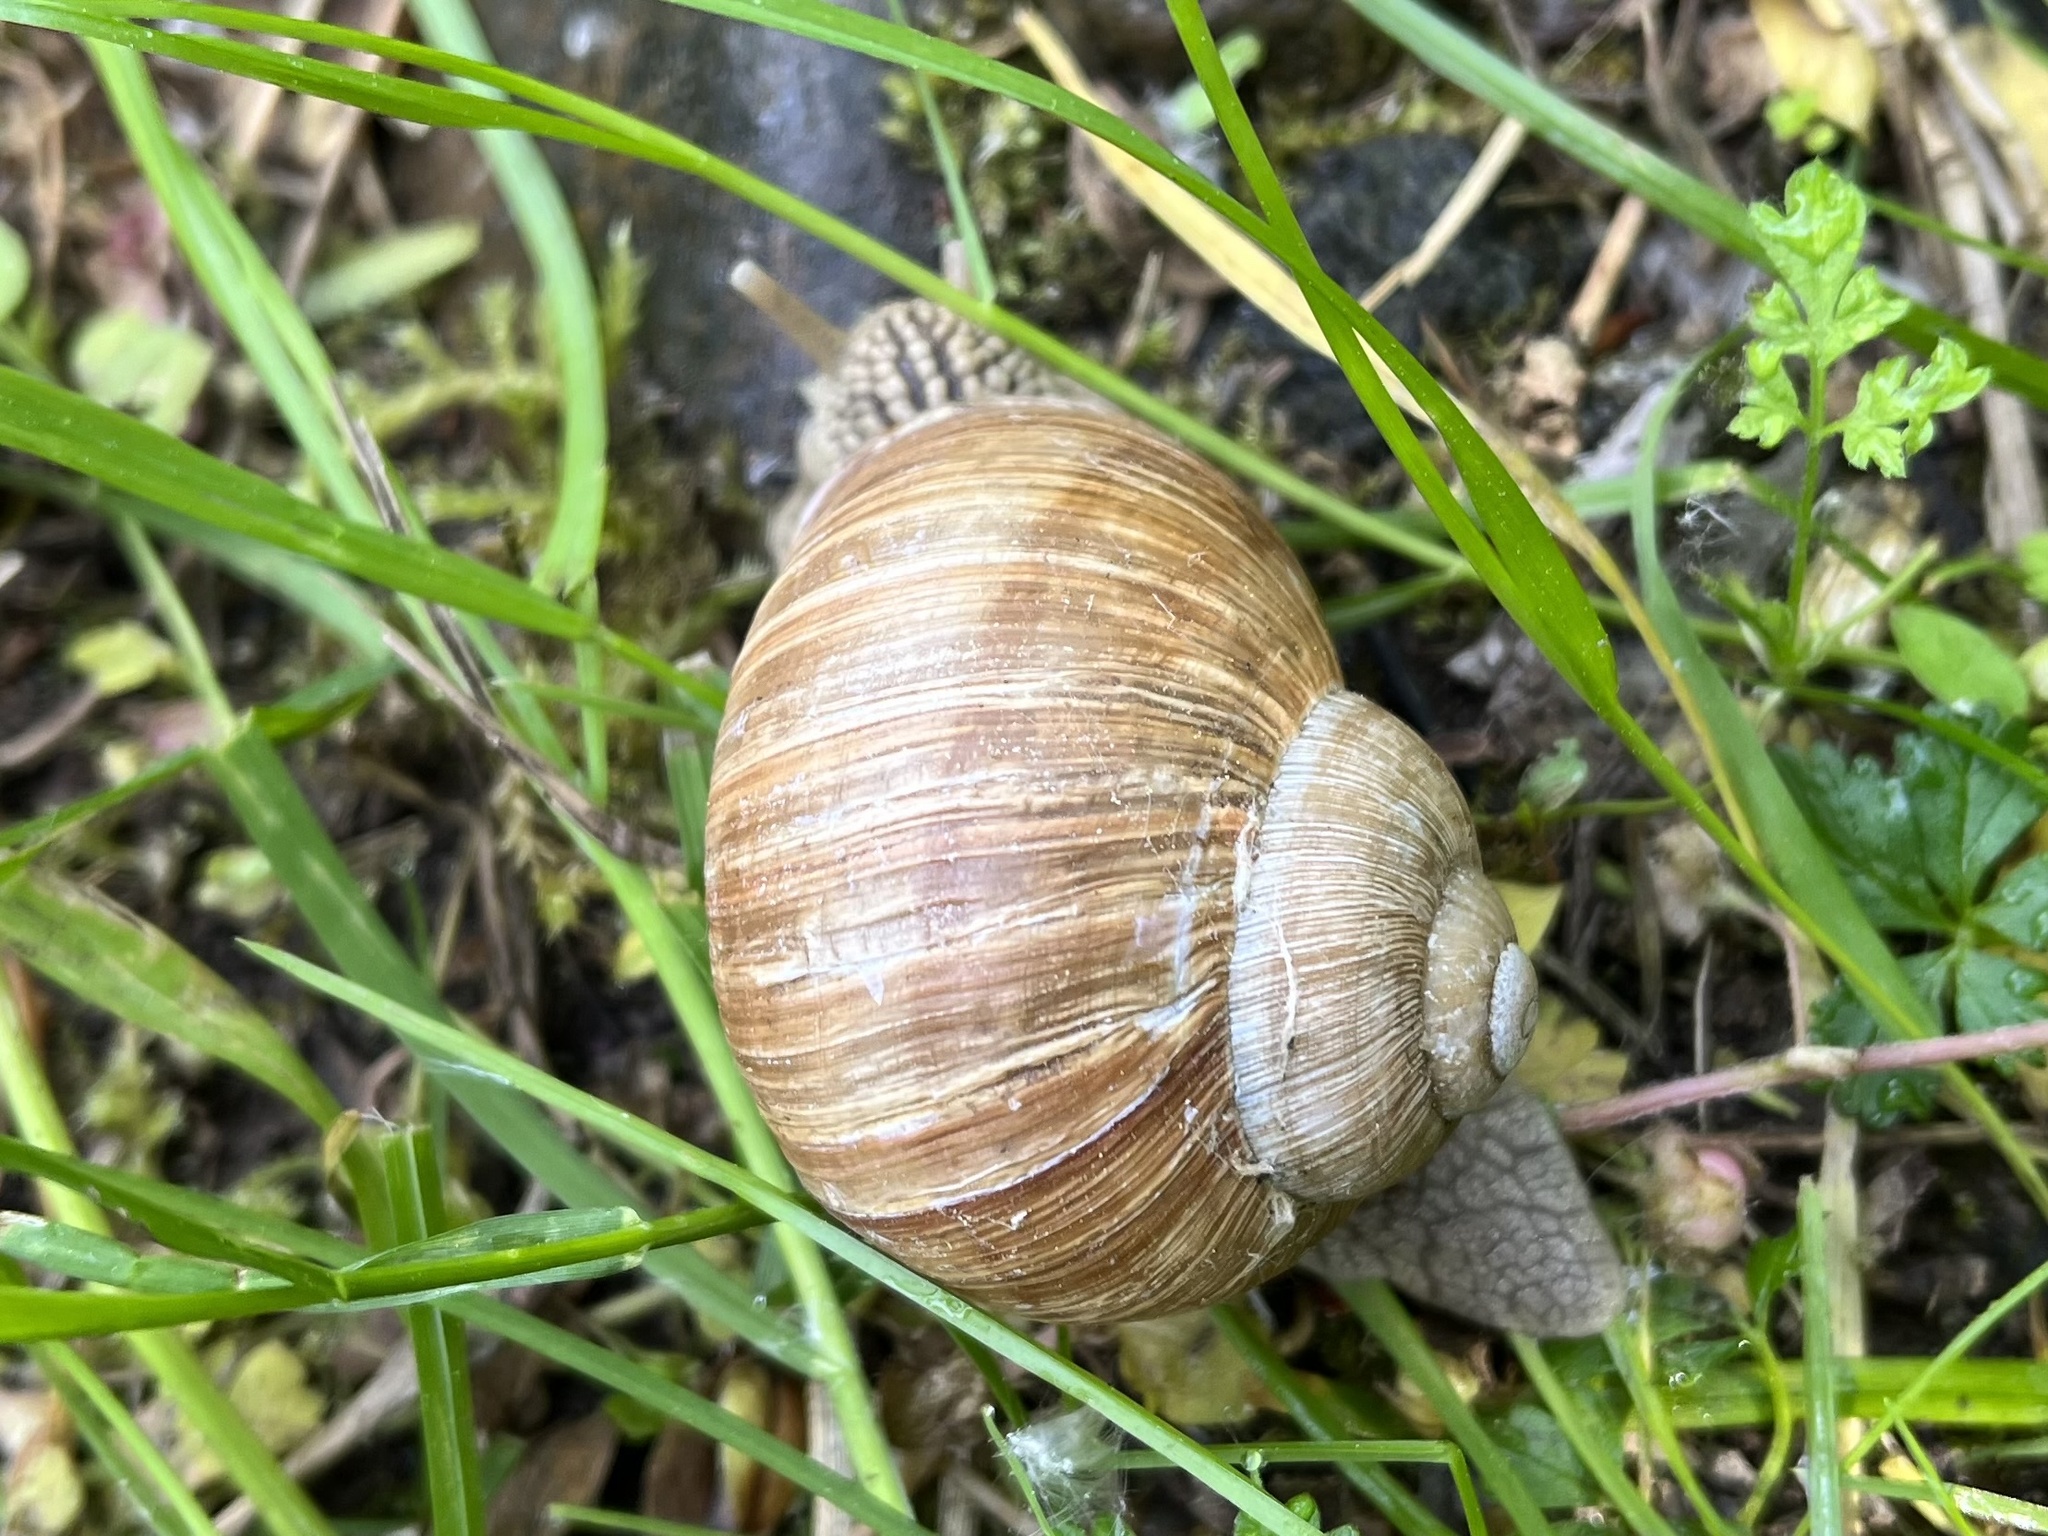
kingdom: Animalia
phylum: Mollusca
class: Gastropoda
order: Stylommatophora
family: Helicidae
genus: Helix
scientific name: Helix pomatia
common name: Roman snail
